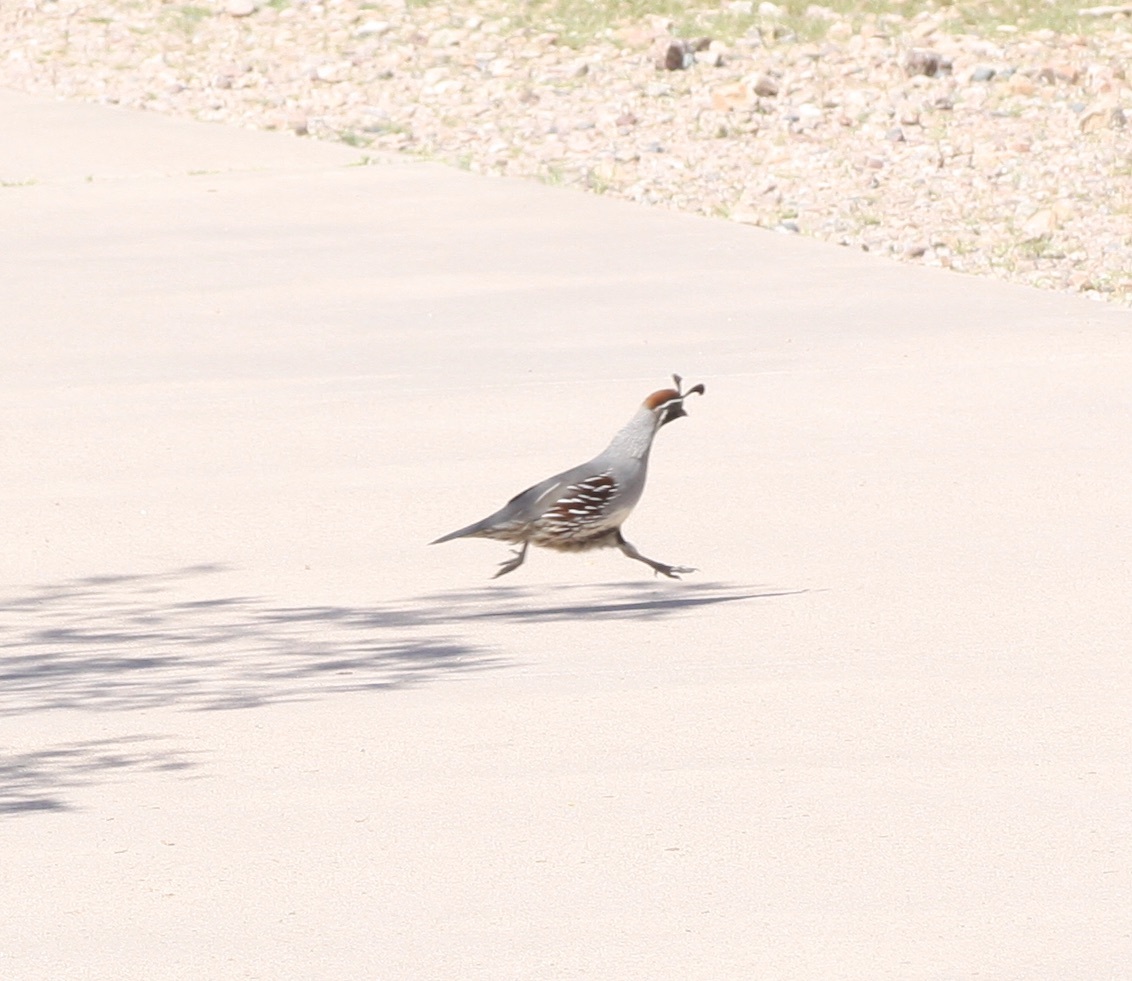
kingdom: Animalia
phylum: Chordata
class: Aves
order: Galliformes
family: Odontophoridae
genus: Callipepla
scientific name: Callipepla gambelii
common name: Gambel's quail
